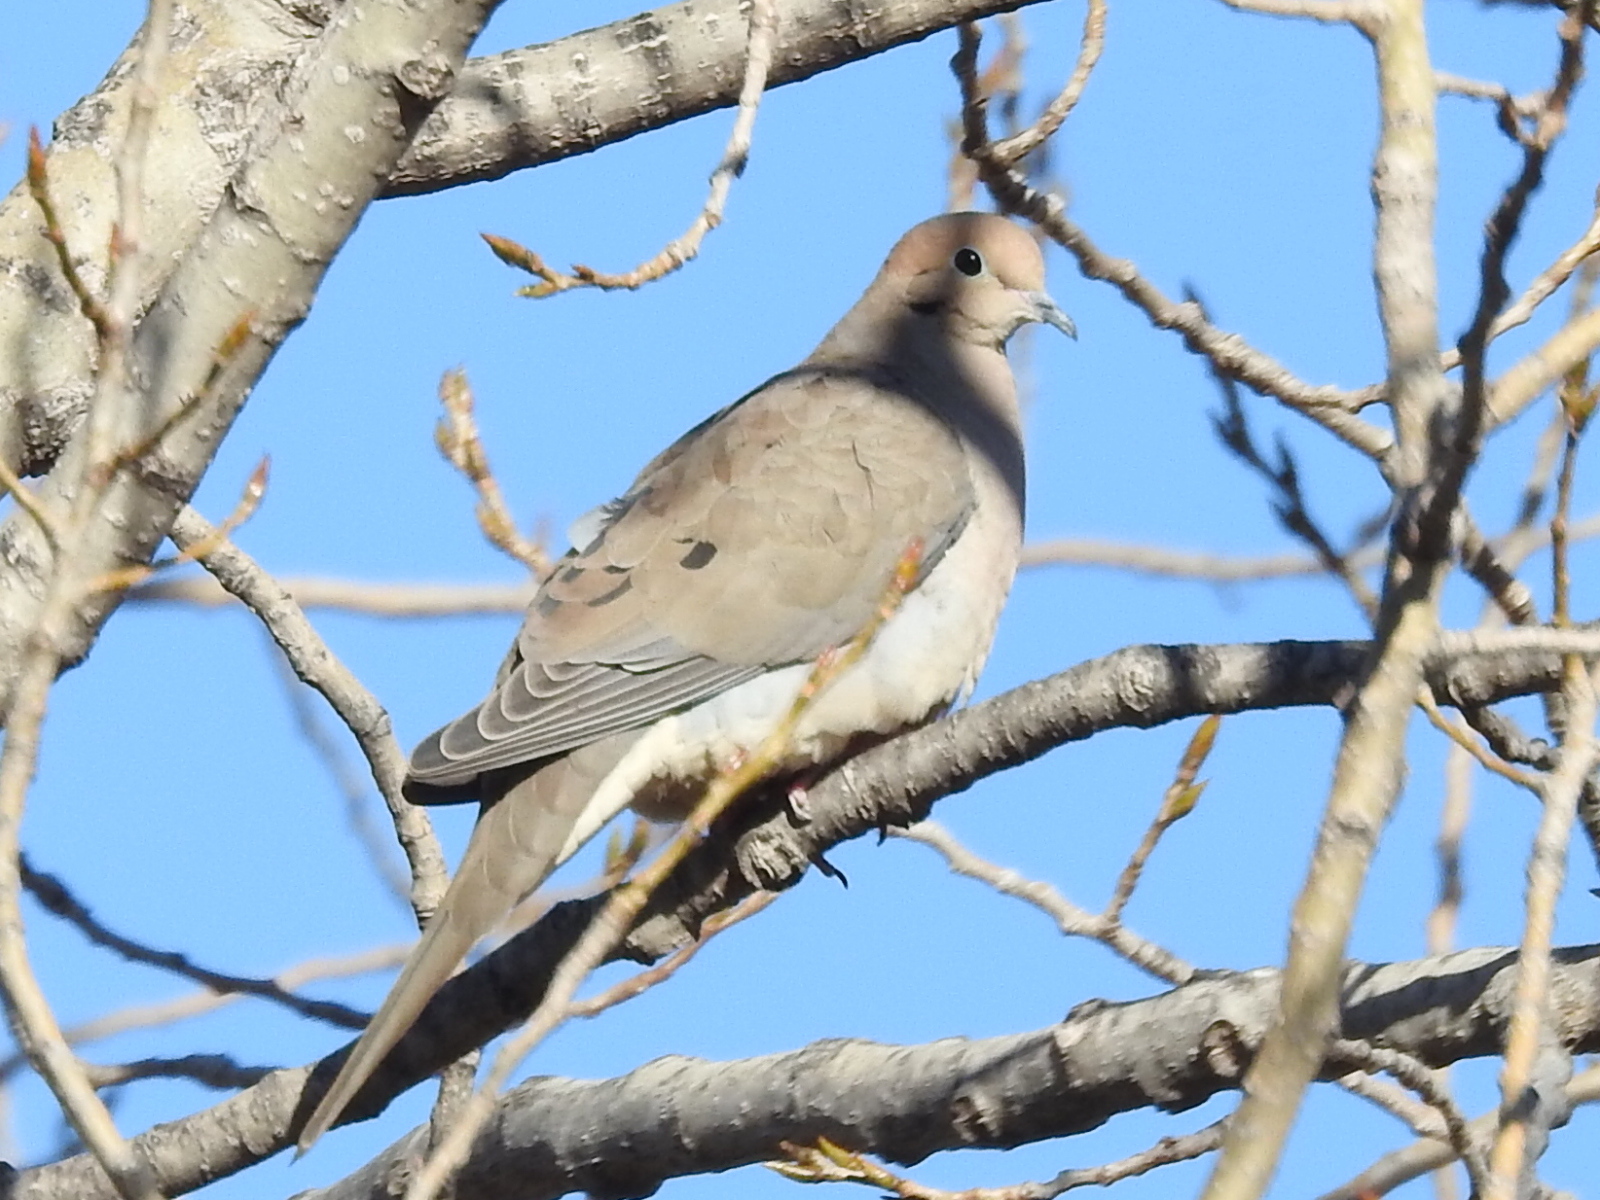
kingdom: Animalia
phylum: Chordata
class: Aves
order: Columbiformes
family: Columbidae
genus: Zenaida
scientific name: Zenaida macroura
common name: Mourning dove
